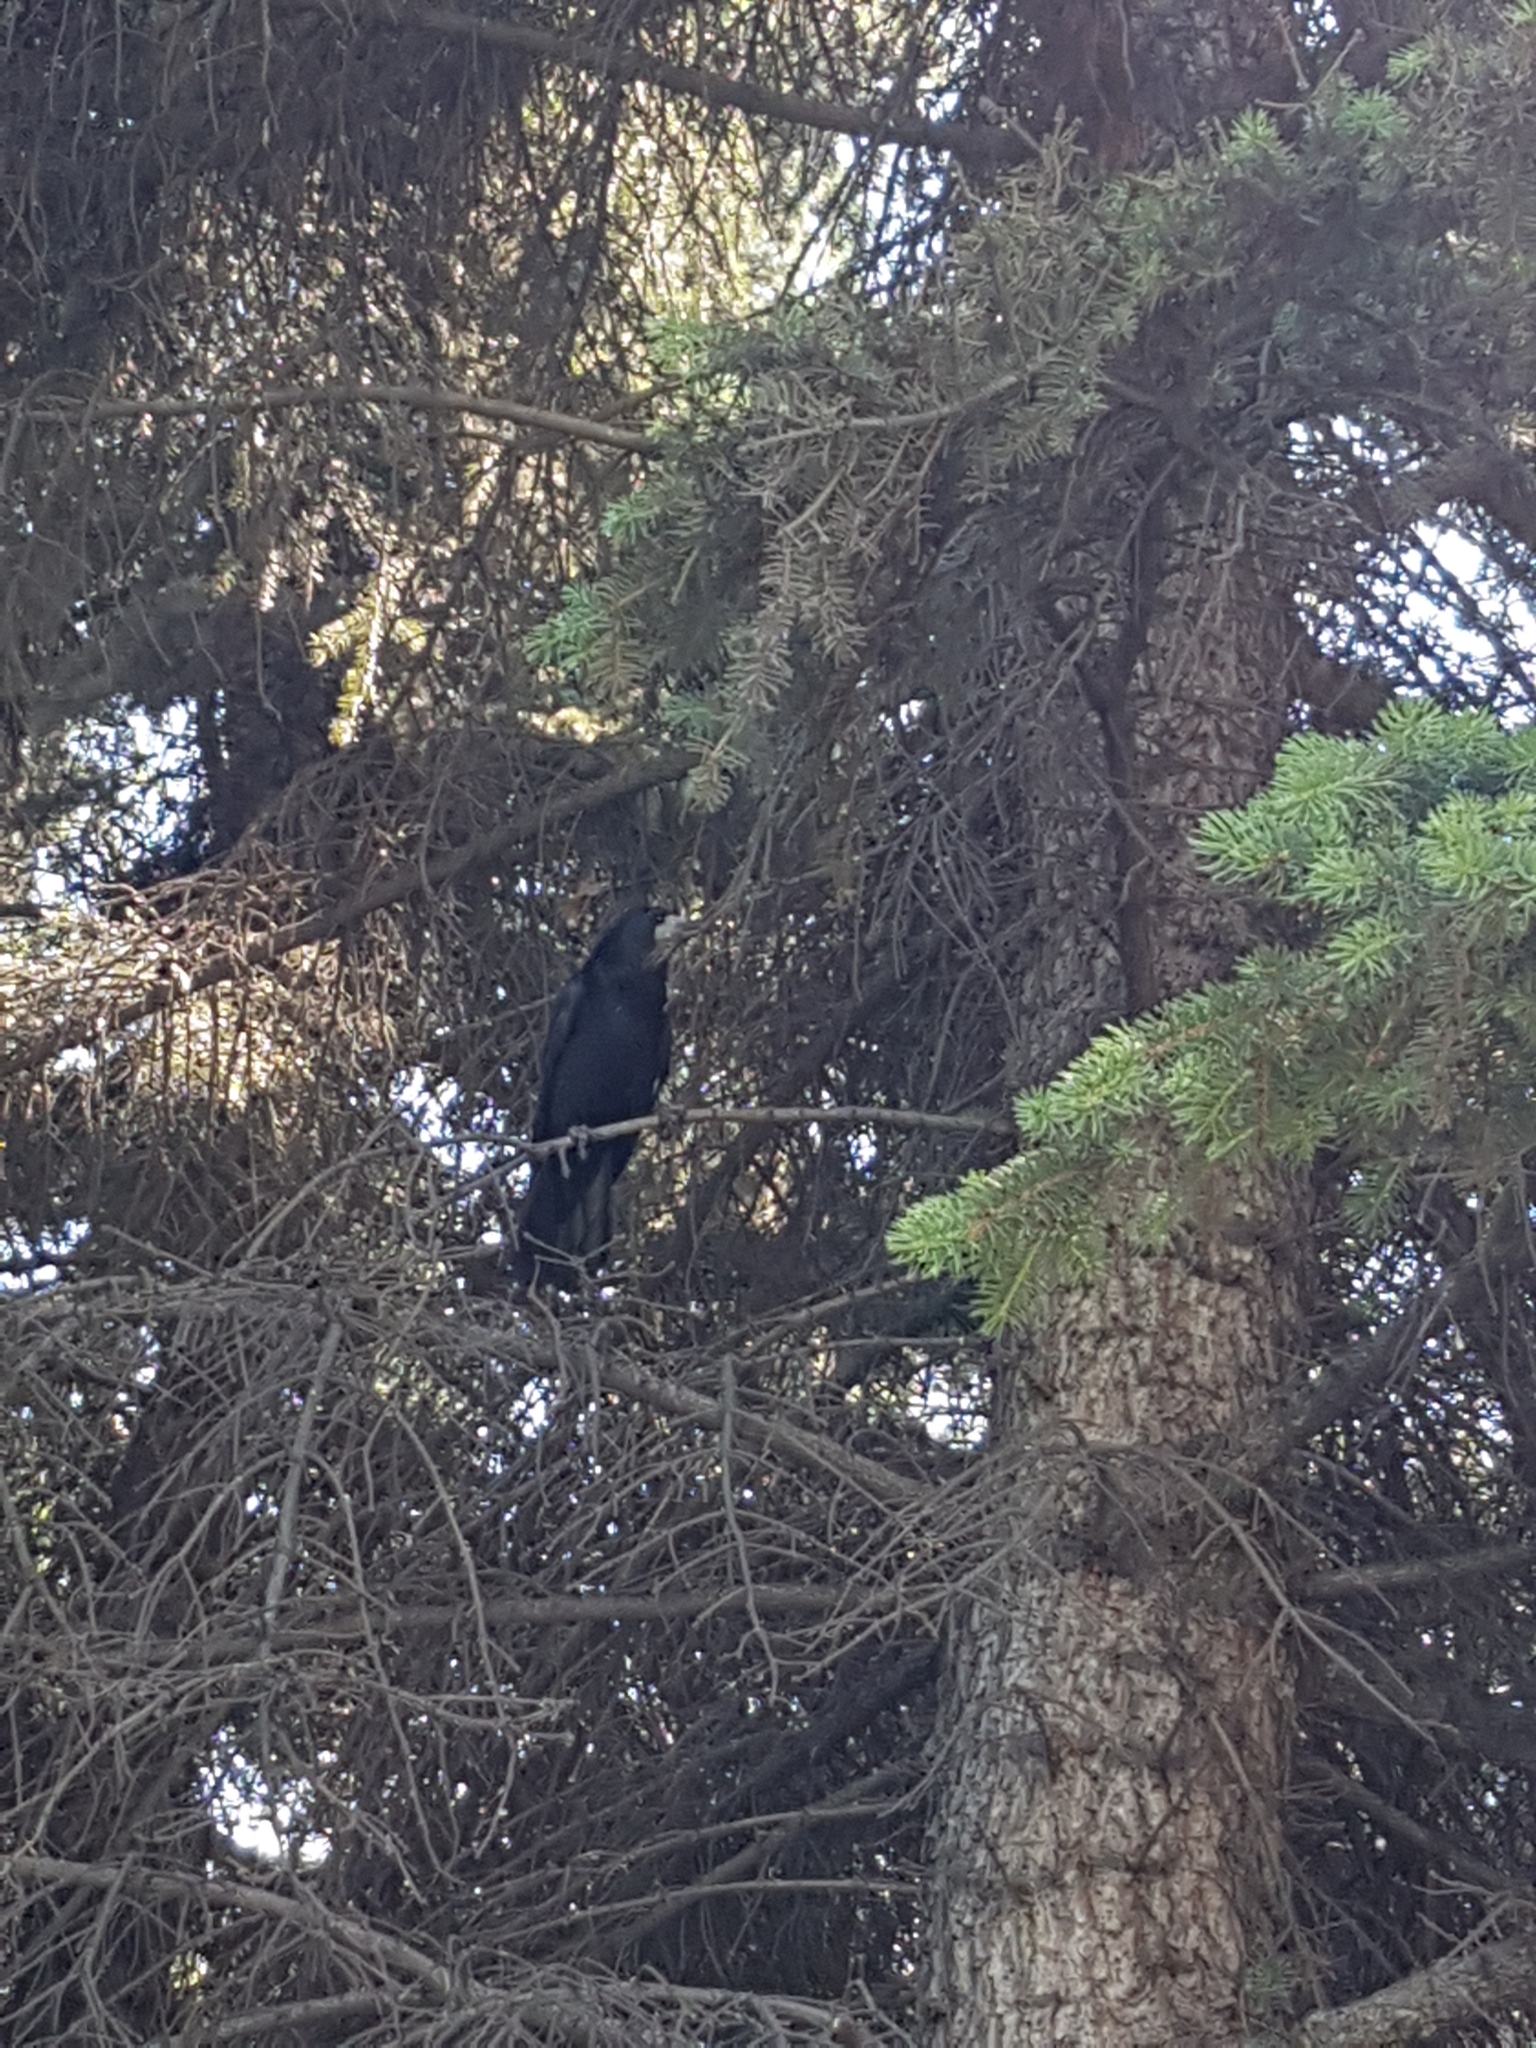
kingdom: Animalia
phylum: Chordata
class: Aves
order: Passeriformes
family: Corvidae
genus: Corvus
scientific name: Corvus frugilegus
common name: Rook
